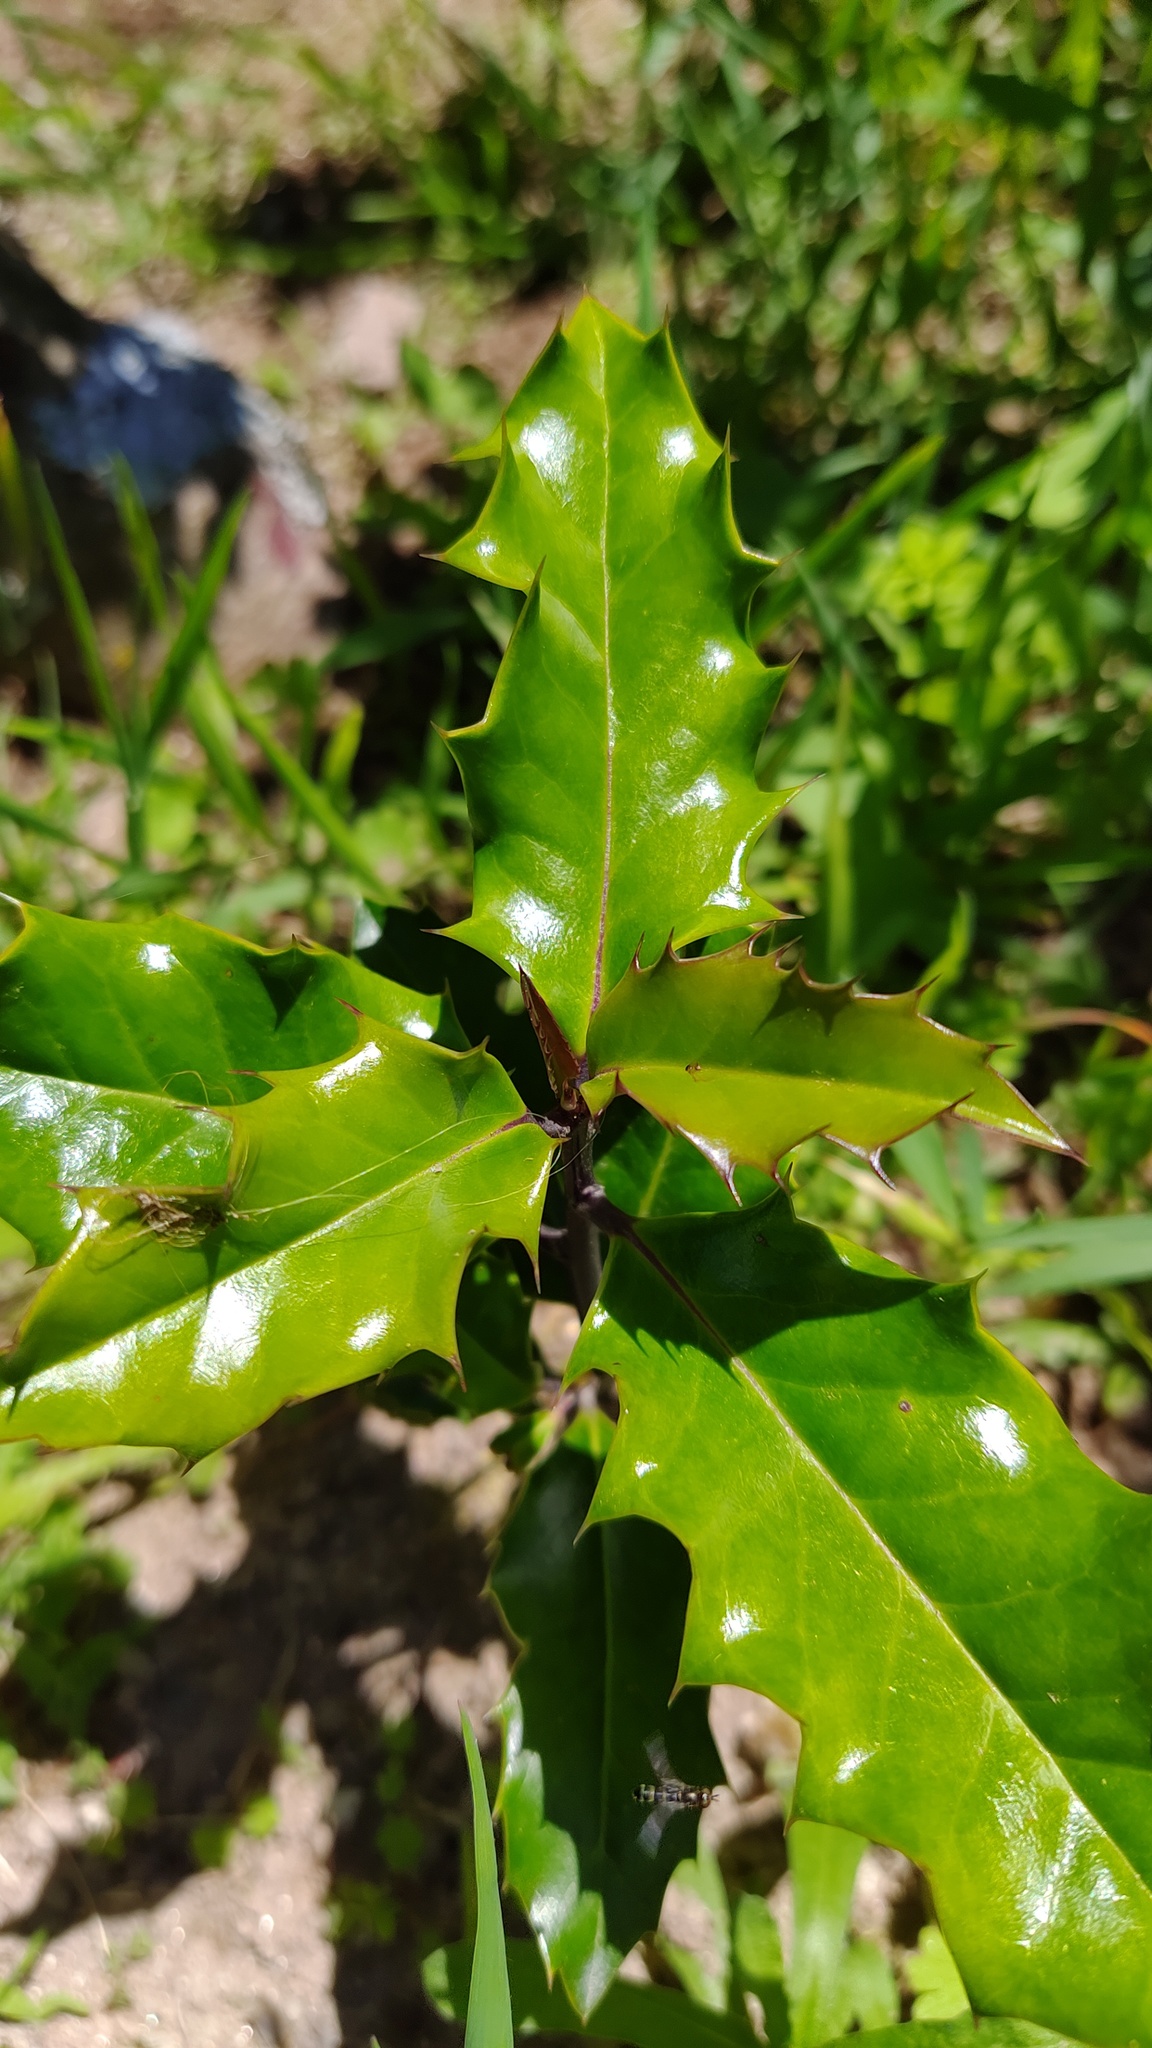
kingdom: Plantae
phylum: Tracheophyta
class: Magnoliopsida
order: Aquifoliales
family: Aquifoliaceae
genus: Ilex
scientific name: Ilex aquifolium
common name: English holly
